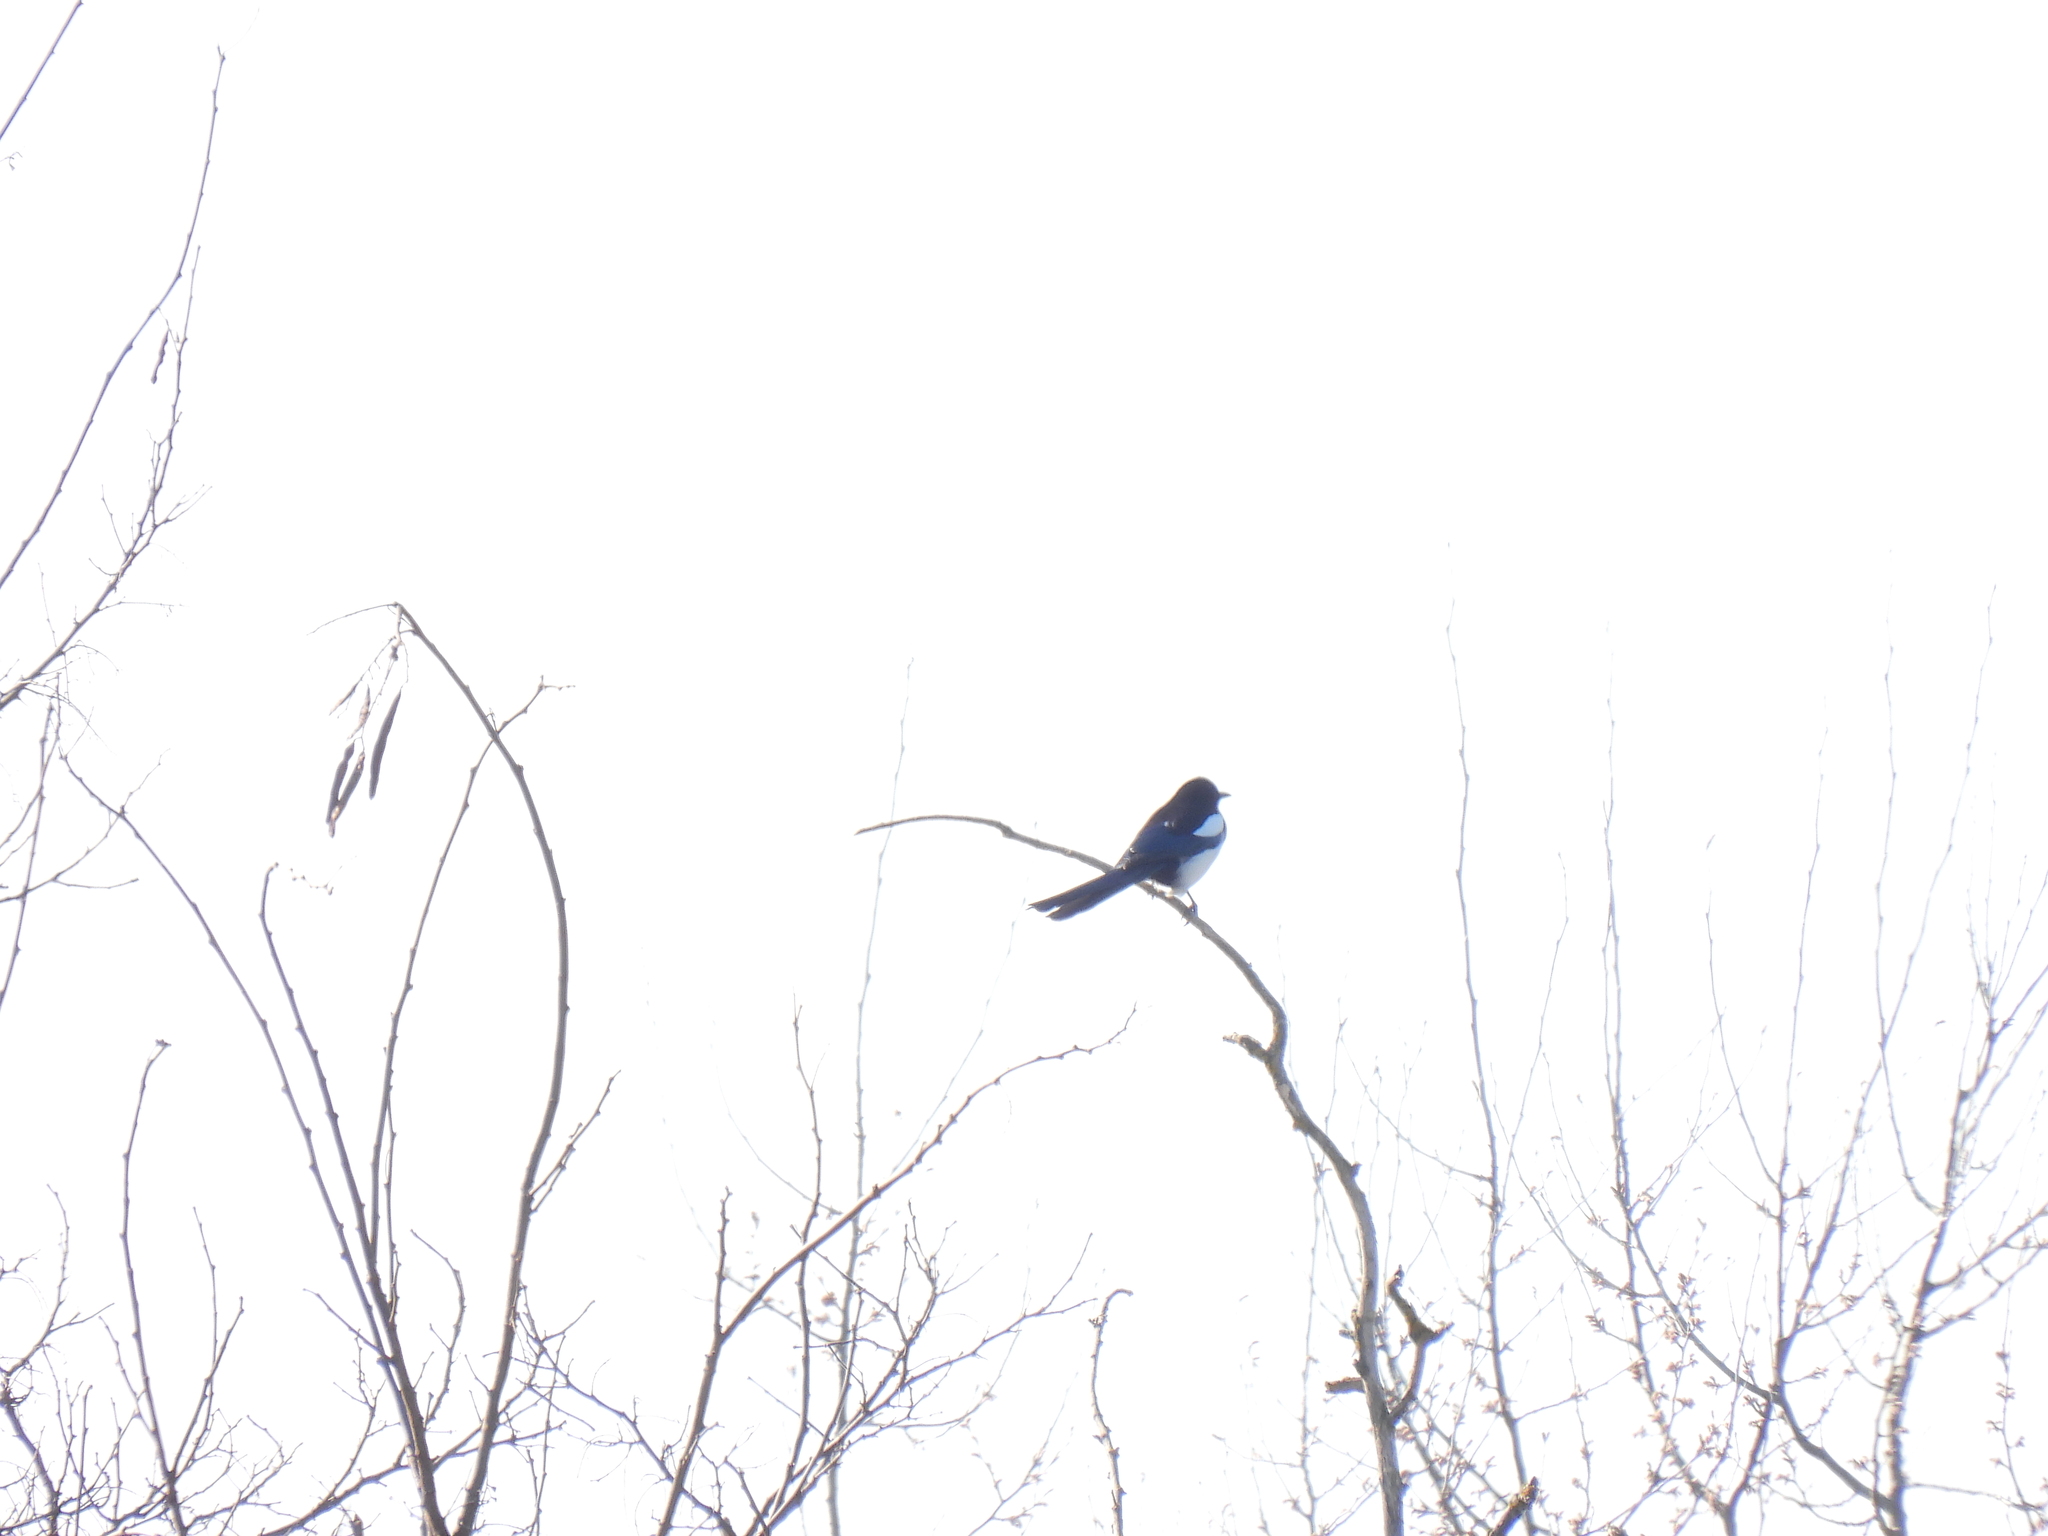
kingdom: Animalia
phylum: Chordata
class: Aves
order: Passeriformes
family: Corvidae
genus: Pica
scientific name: Pica pica
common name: Eurasian magpie
